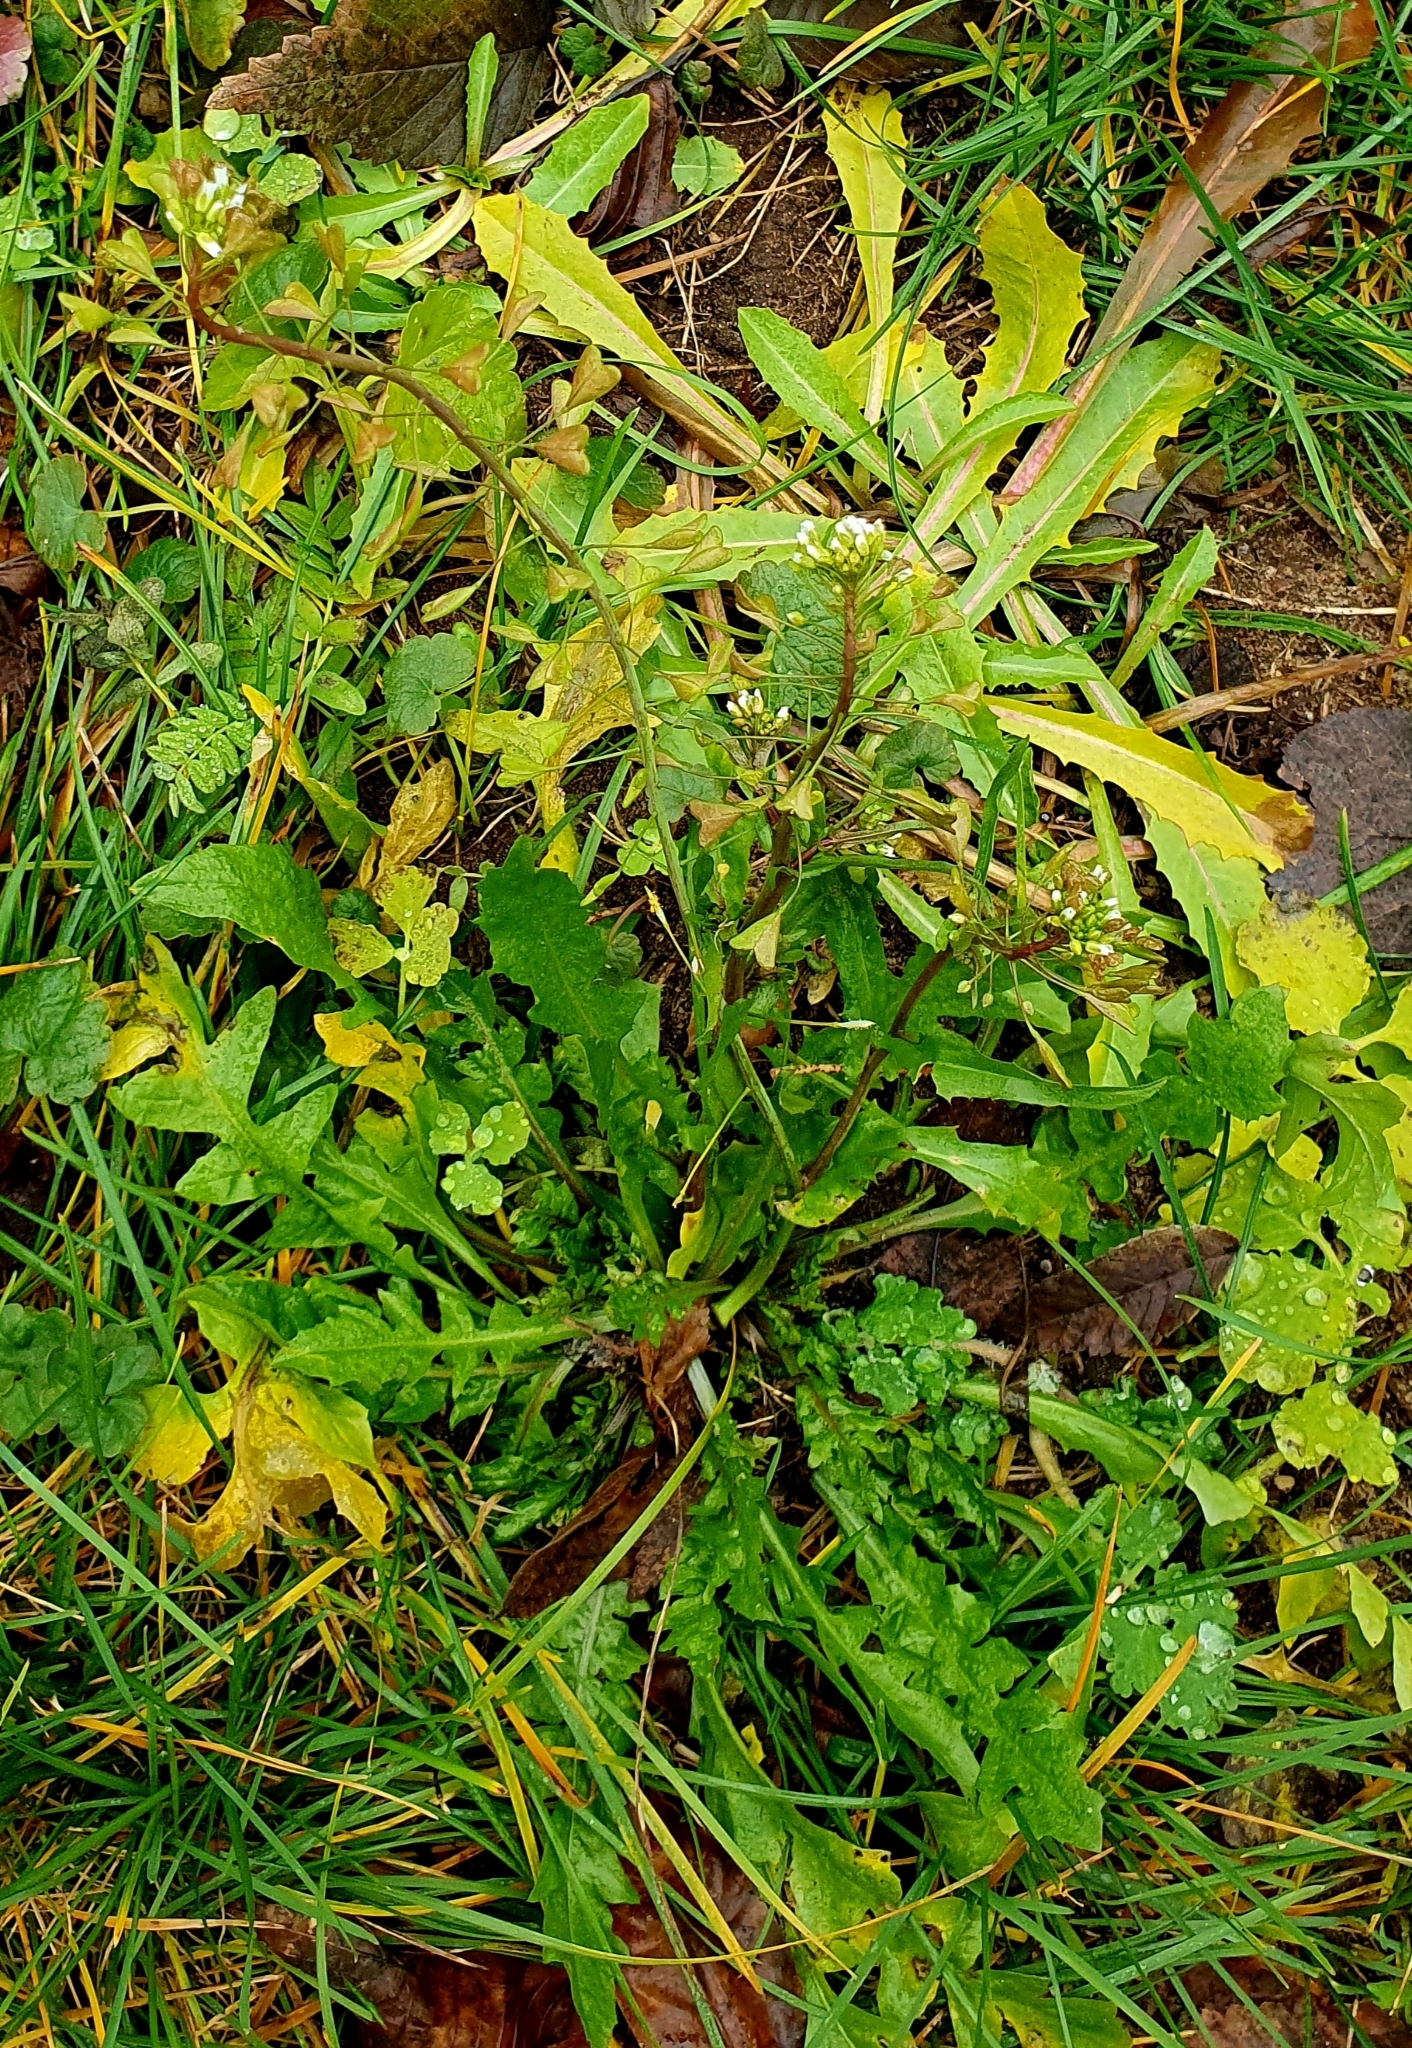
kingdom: Plantae
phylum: Tracheophyta
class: Magnoliopsida
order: Brassicales
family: Brassicaceae
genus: Capsella
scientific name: Capsella bursa-pastoris
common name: Shepherd's purse
